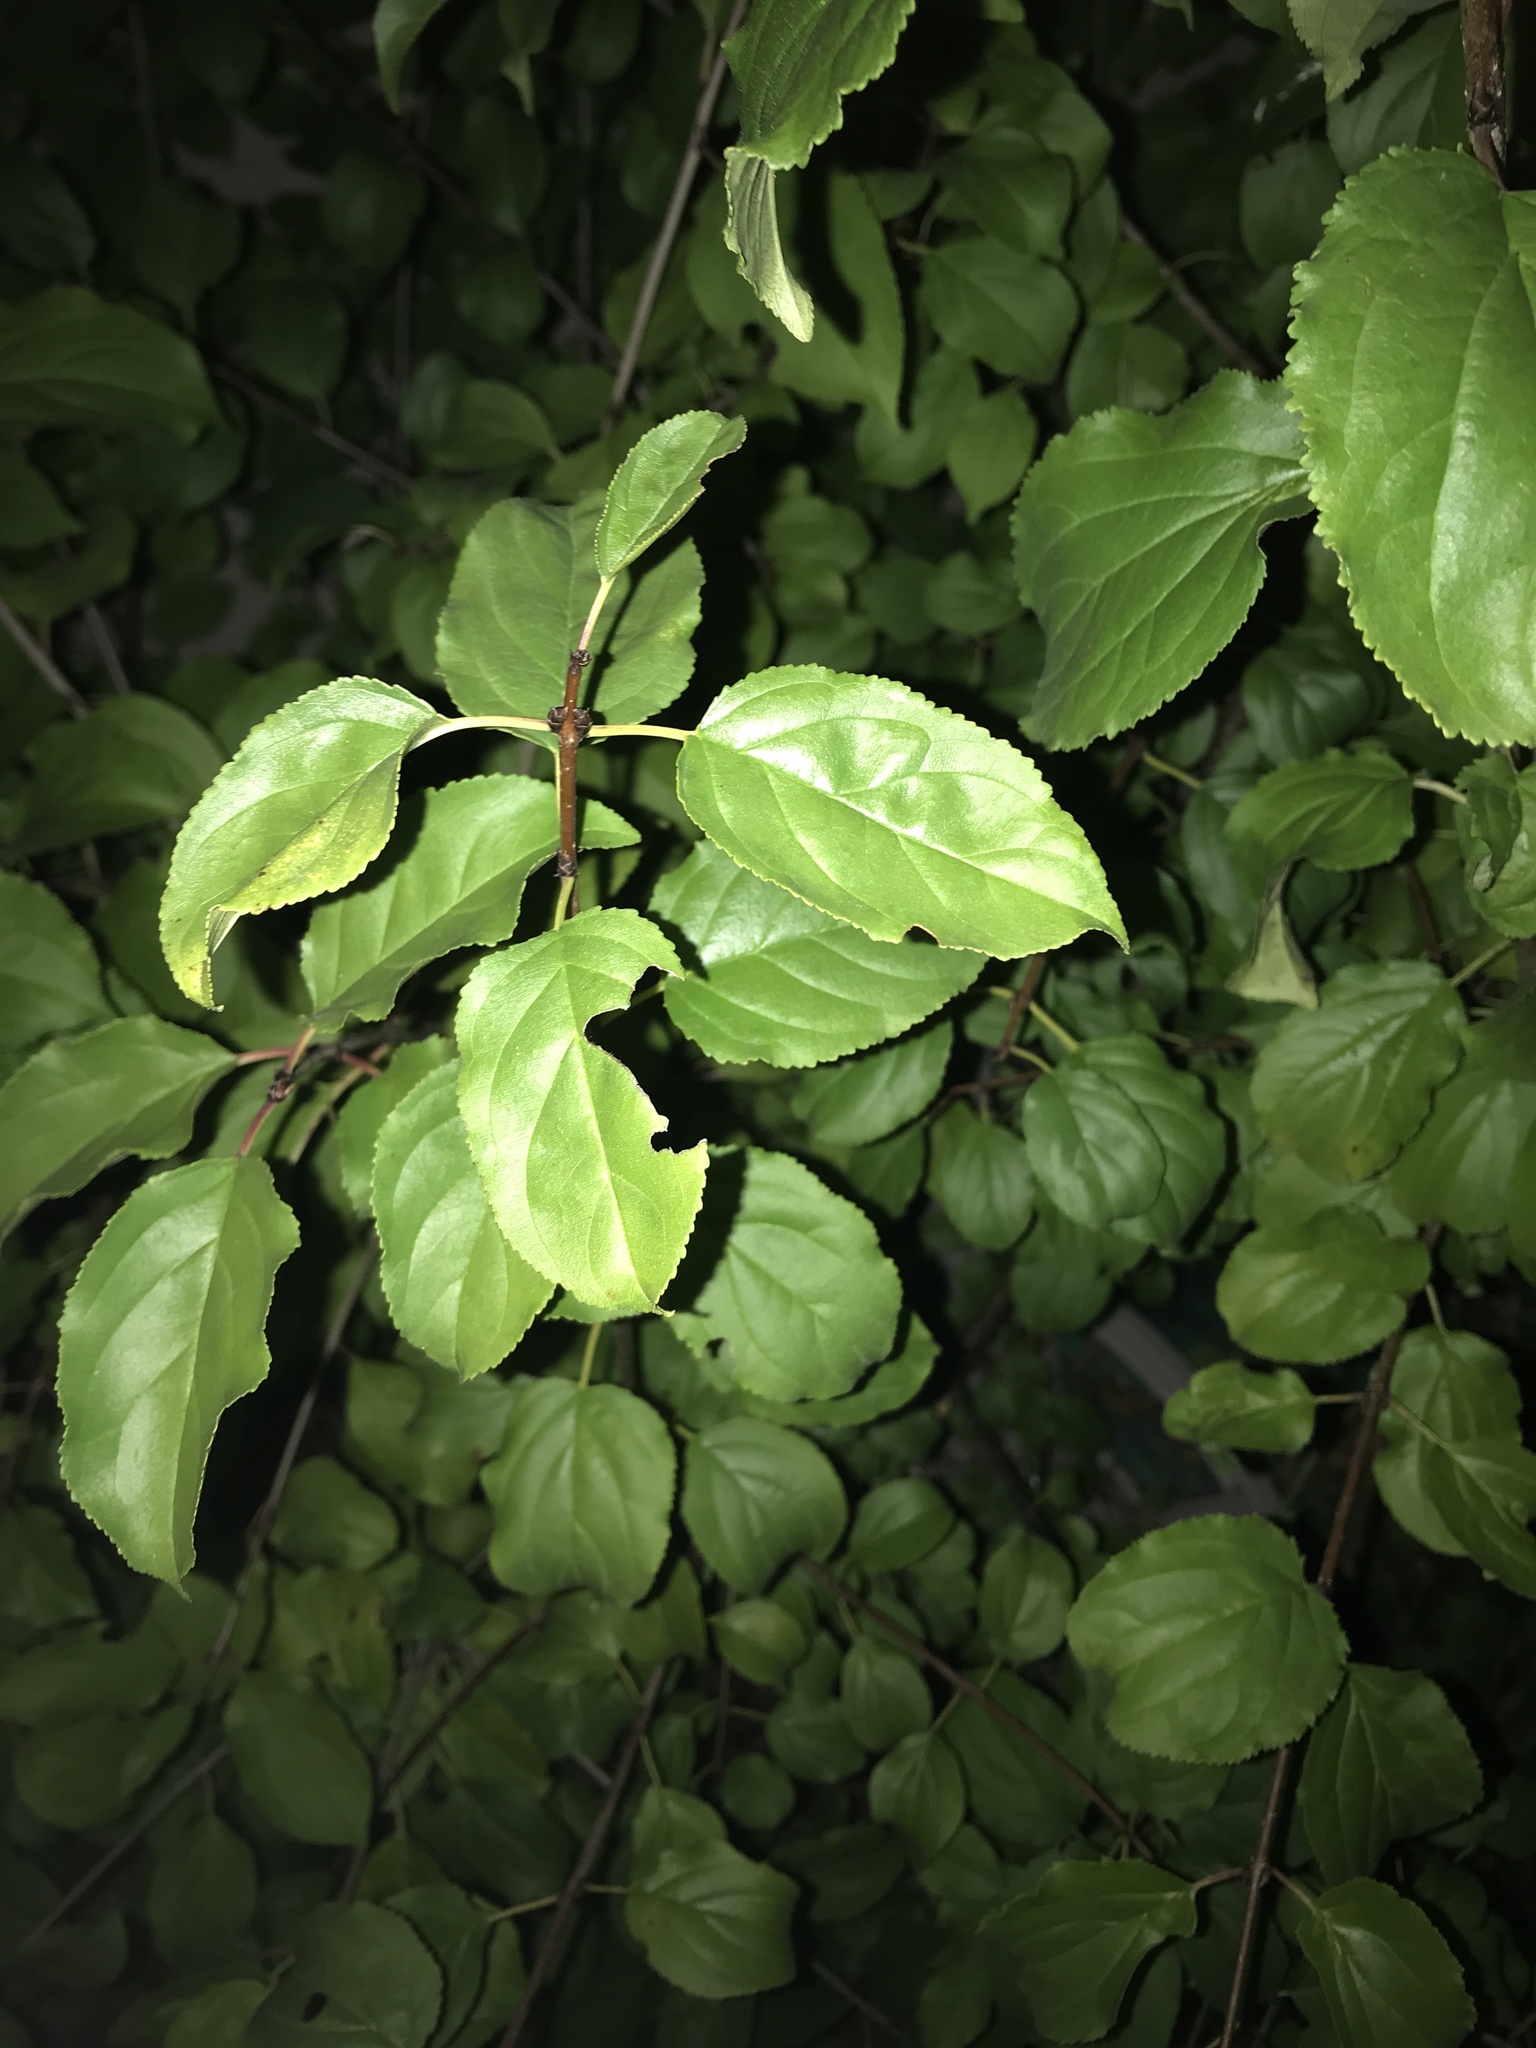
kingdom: Plantae
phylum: Tracheophyta
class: Magnoliopsida
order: Celastrales
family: Celastraceae
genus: Celastrus
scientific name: Celastrus orbiculatus
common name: Oriental bittersweet
